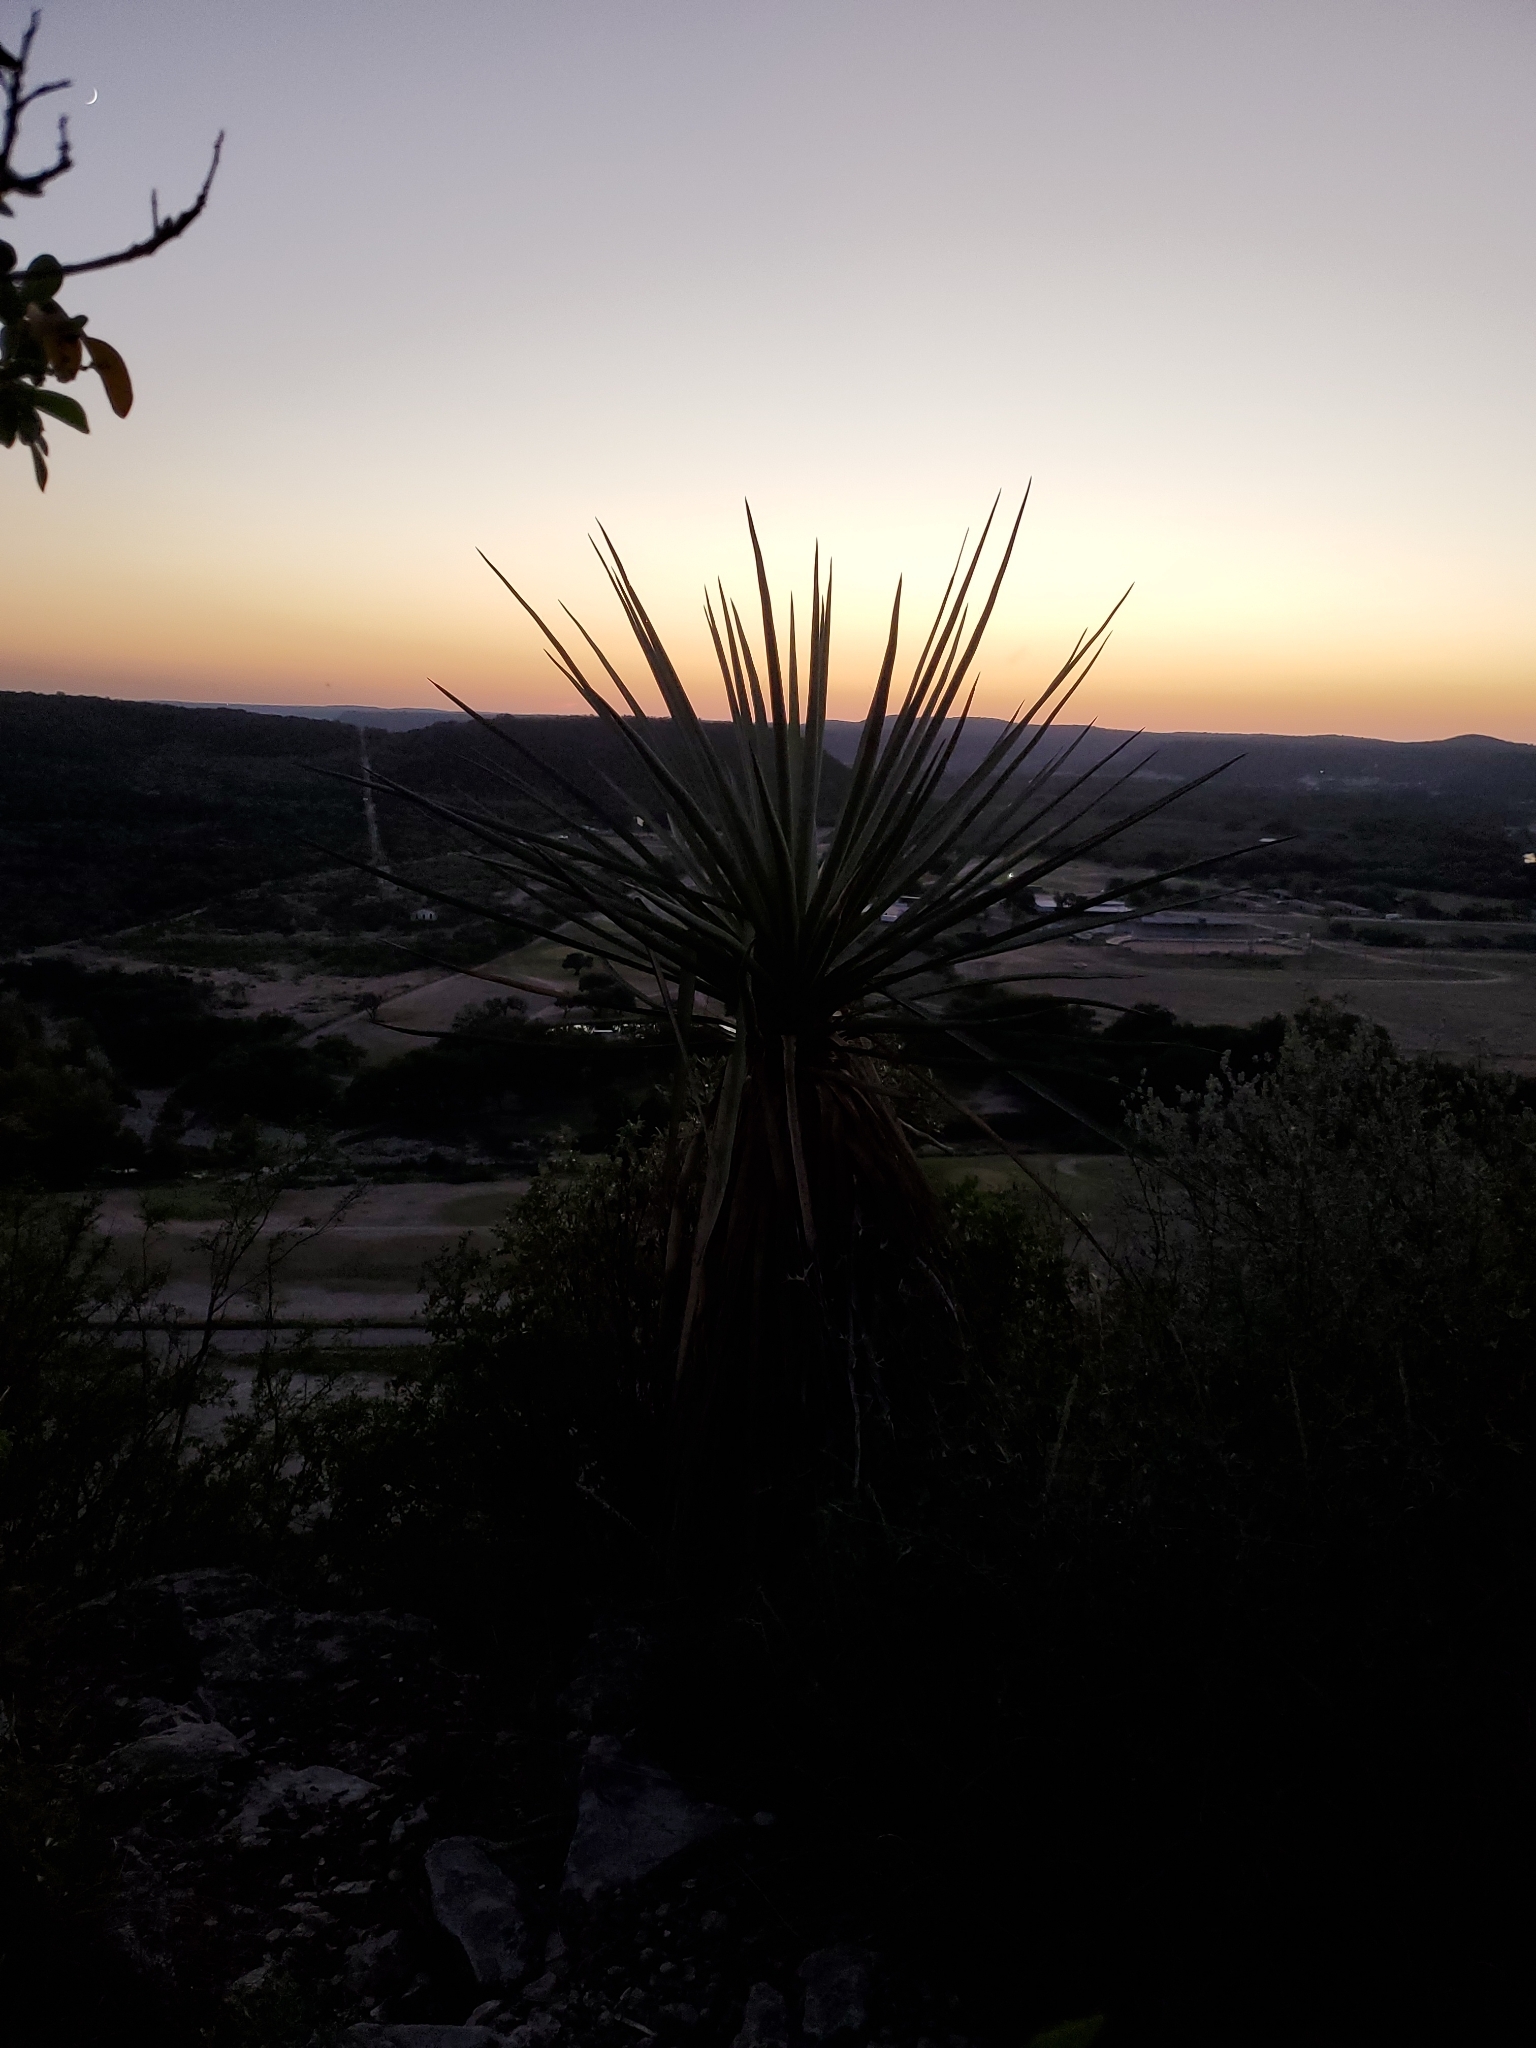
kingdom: Plantae
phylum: Tracheophyta
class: Liliopsida
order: Asparagales
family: Asparagaceae
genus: Yucca
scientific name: Yucca treculiana
